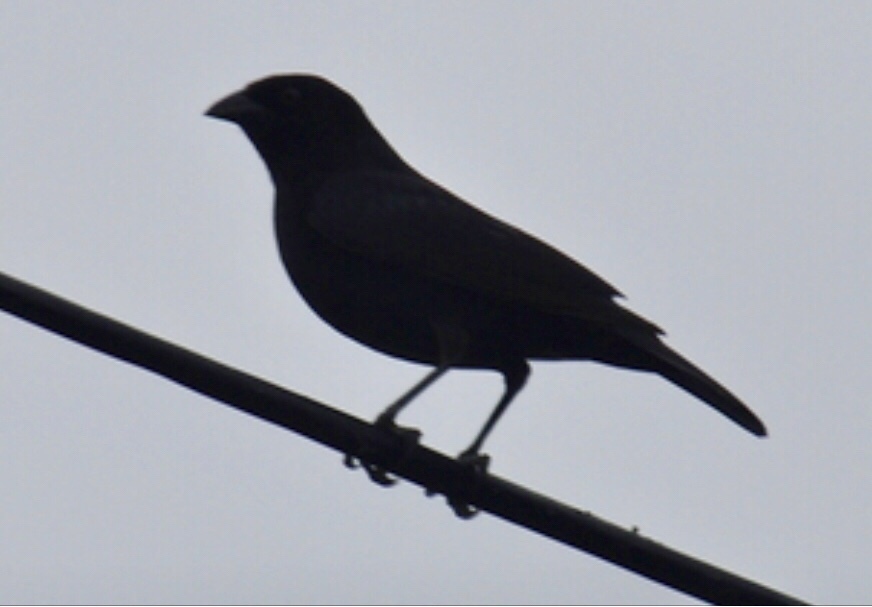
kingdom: Animalia
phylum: Chordata
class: Aves
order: Passeriformes
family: Icteridae
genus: Molothrus
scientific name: Molothrus aeneus
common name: Bronzed cowbird
